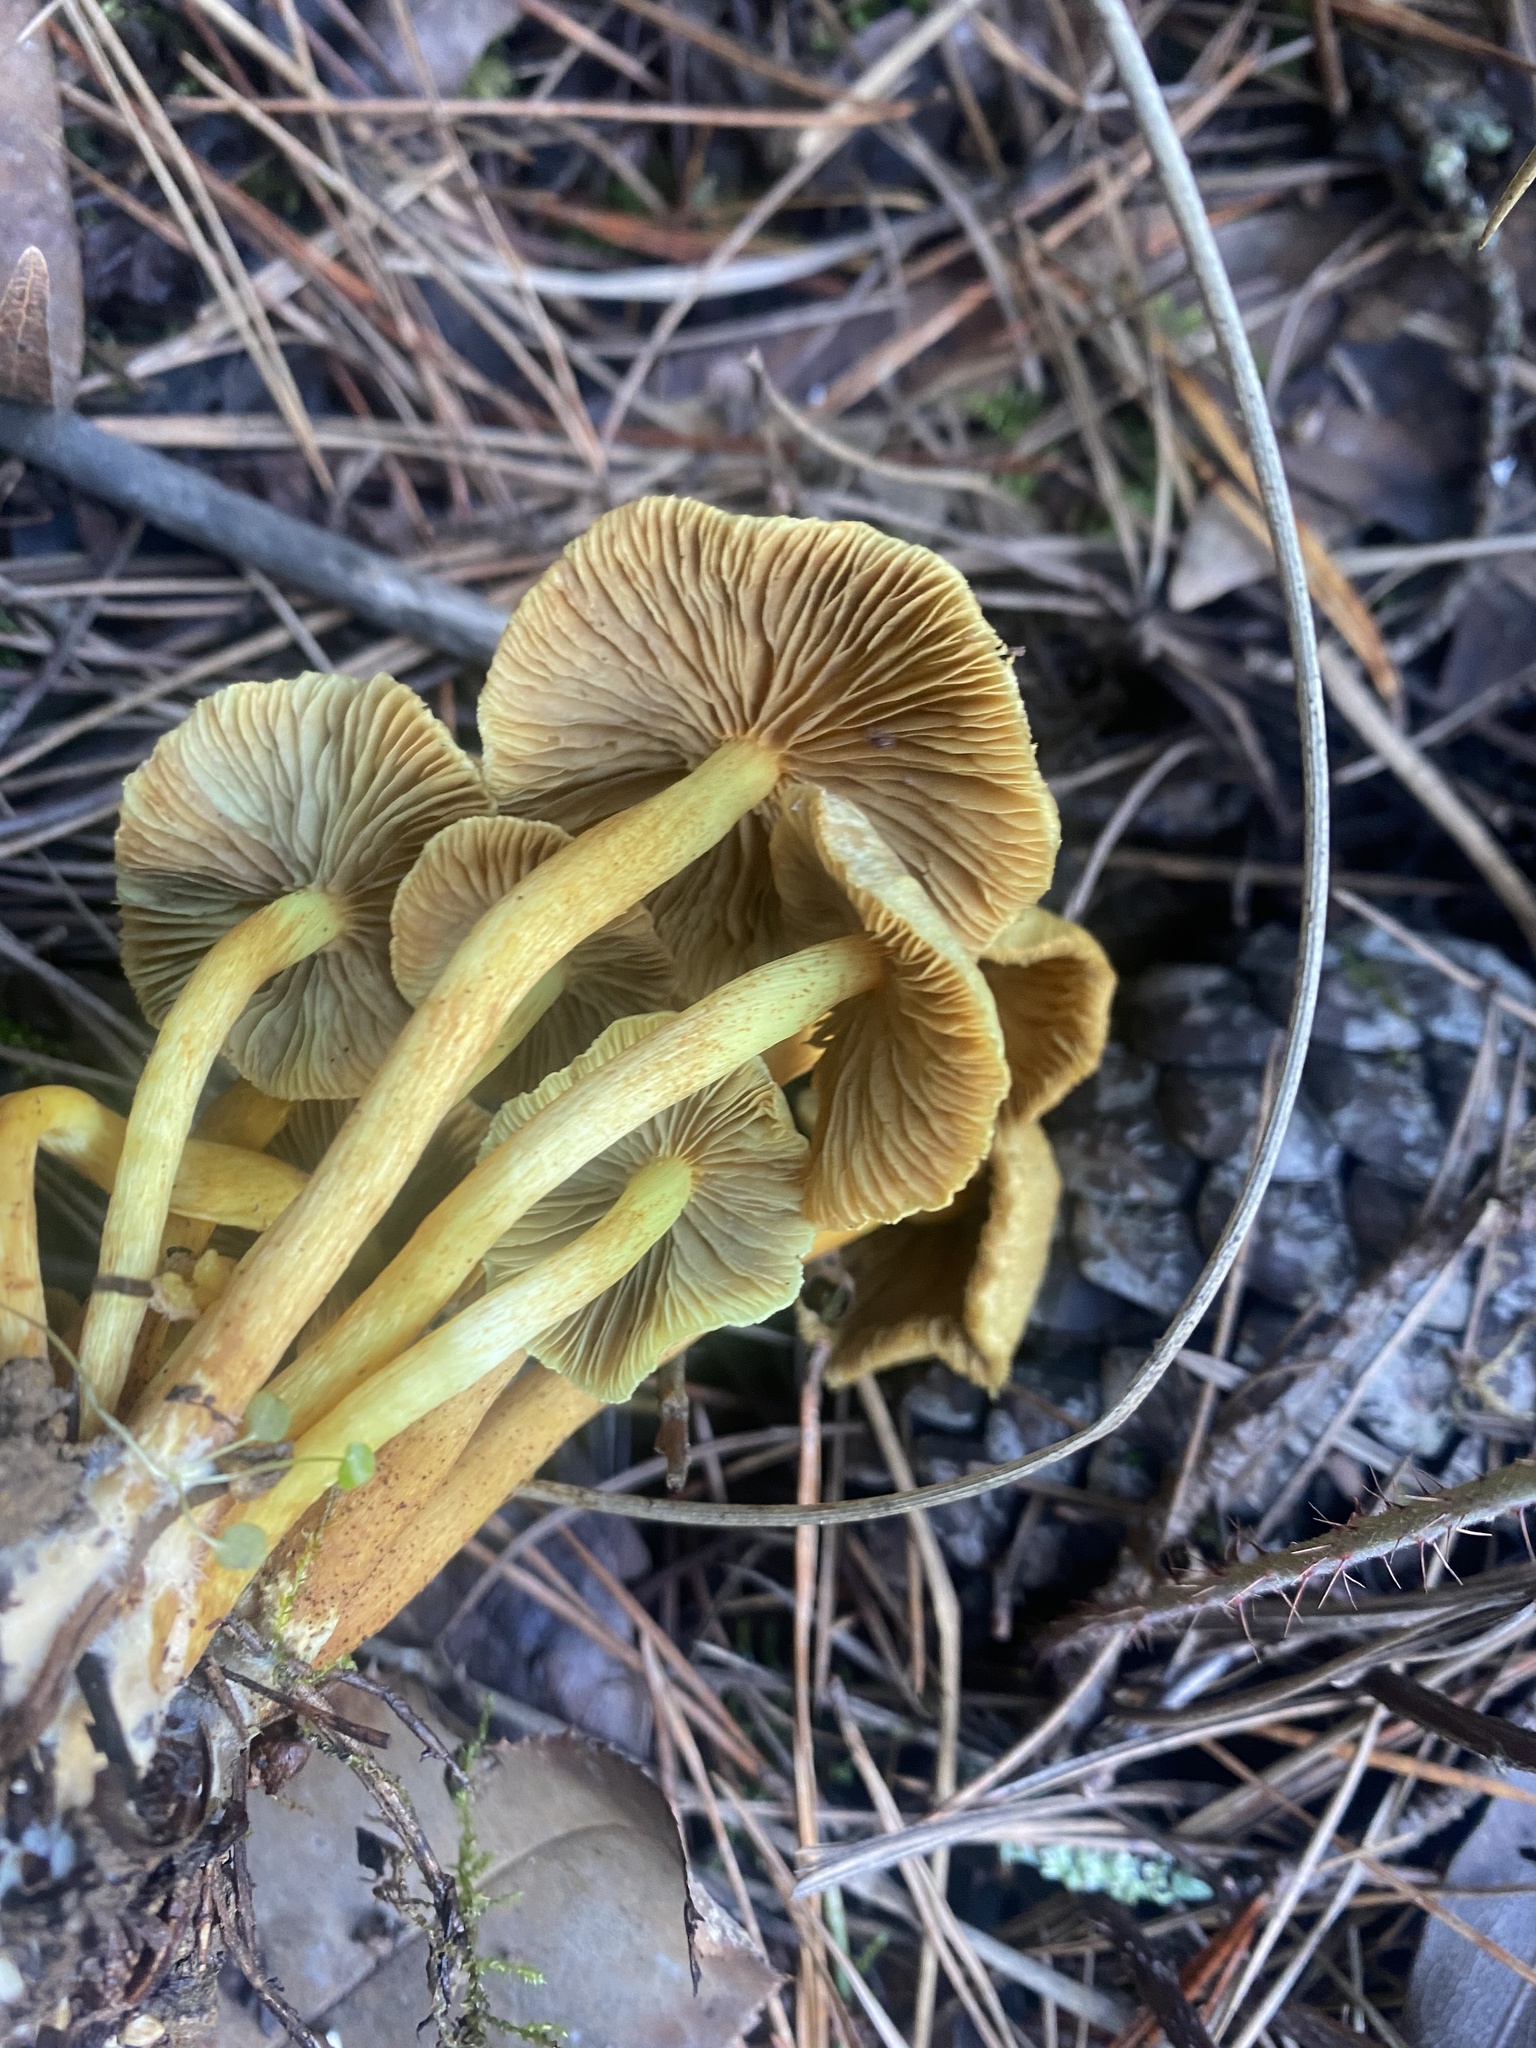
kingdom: Fungi
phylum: Basidiomycota
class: Agaricomycetes
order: Agaricales
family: Strophariaceae
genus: Hypholoma
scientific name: Hypholoma fasciculare
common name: Sulphur tuft
